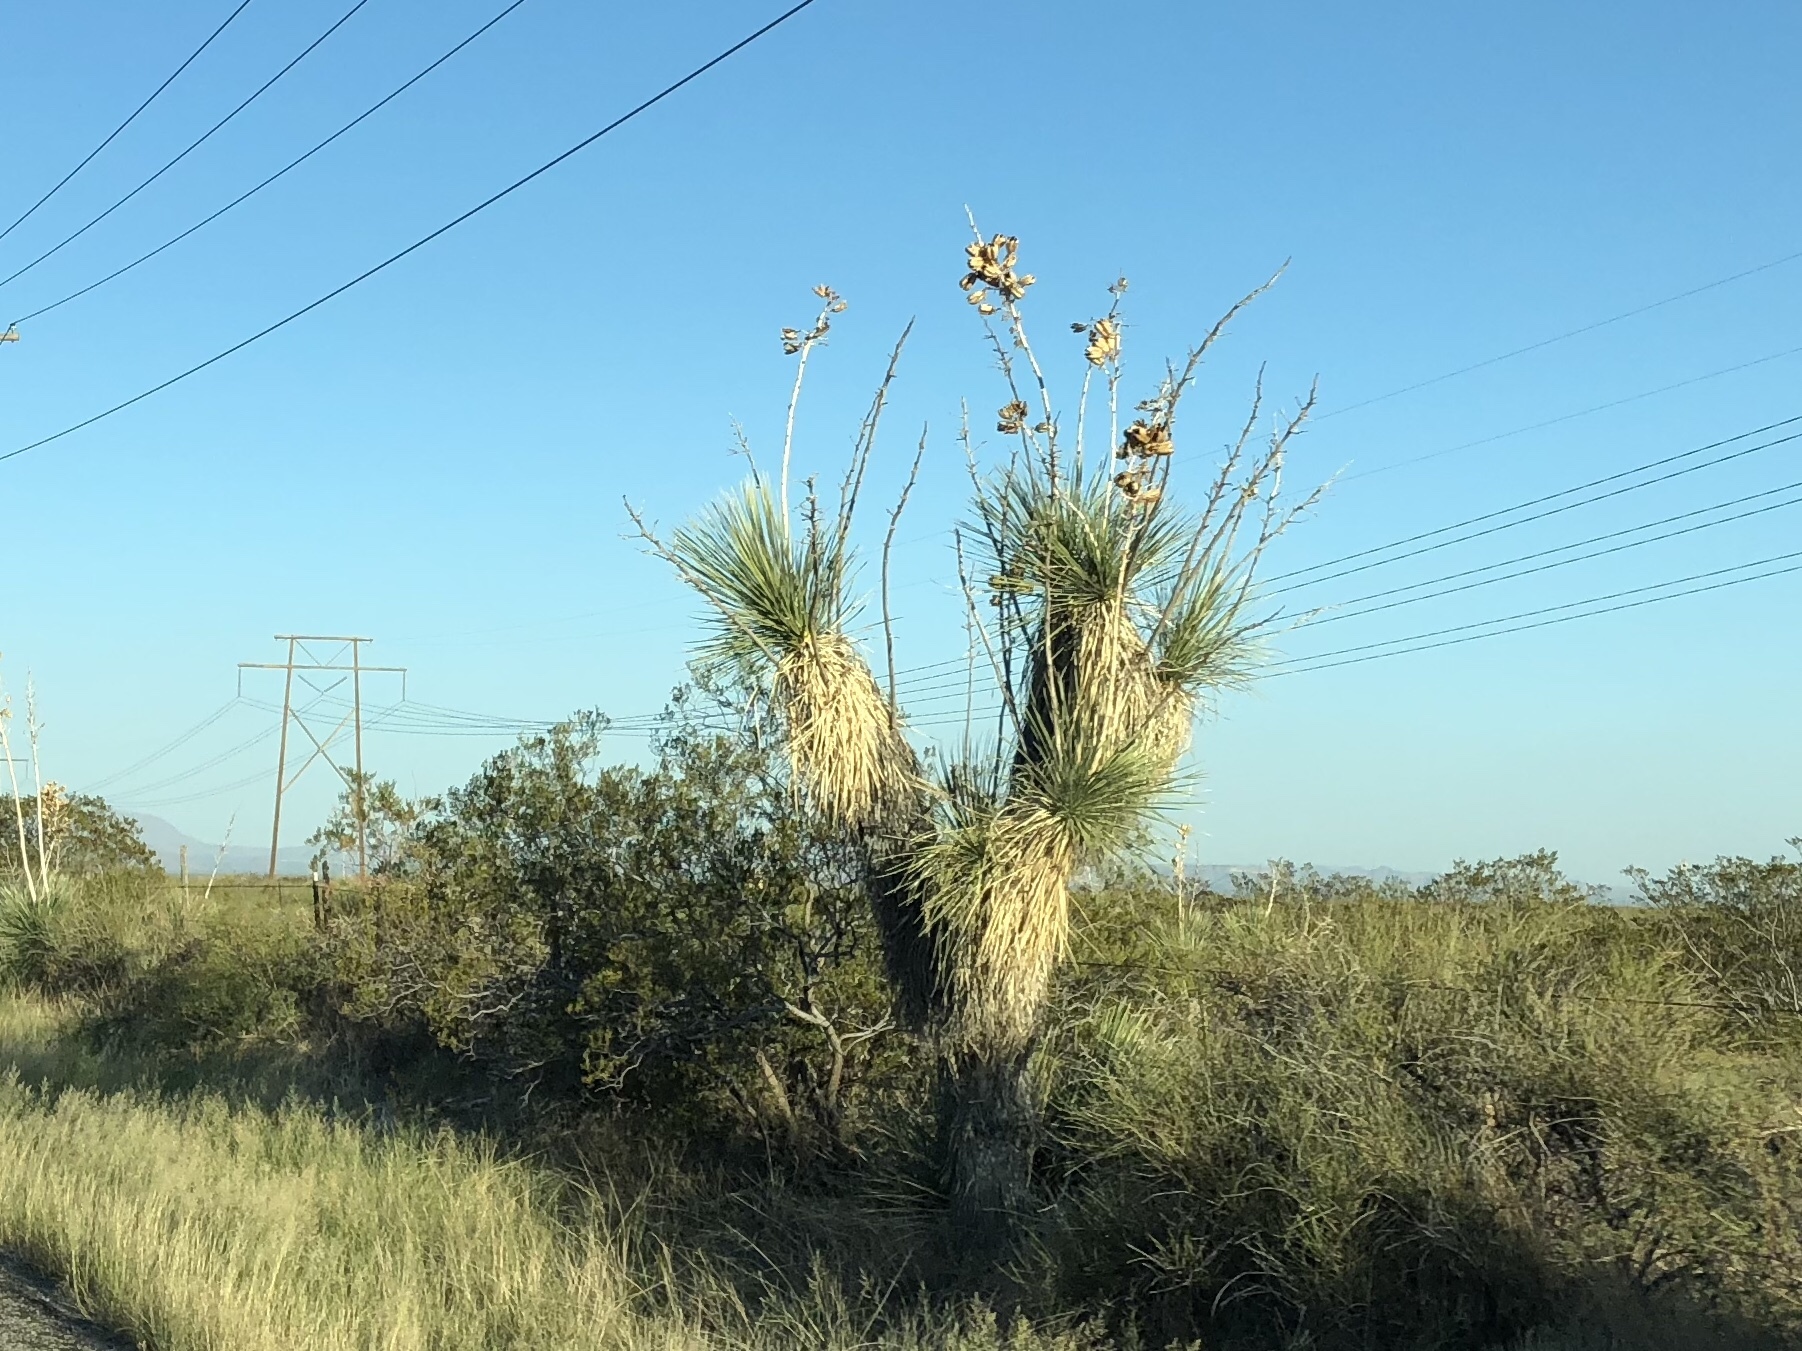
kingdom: Plantae
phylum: Tracheophyta
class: Liliopsida
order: Asparagales
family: Asparagaceae
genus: Yucca
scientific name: Yucca elata
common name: Palmella
